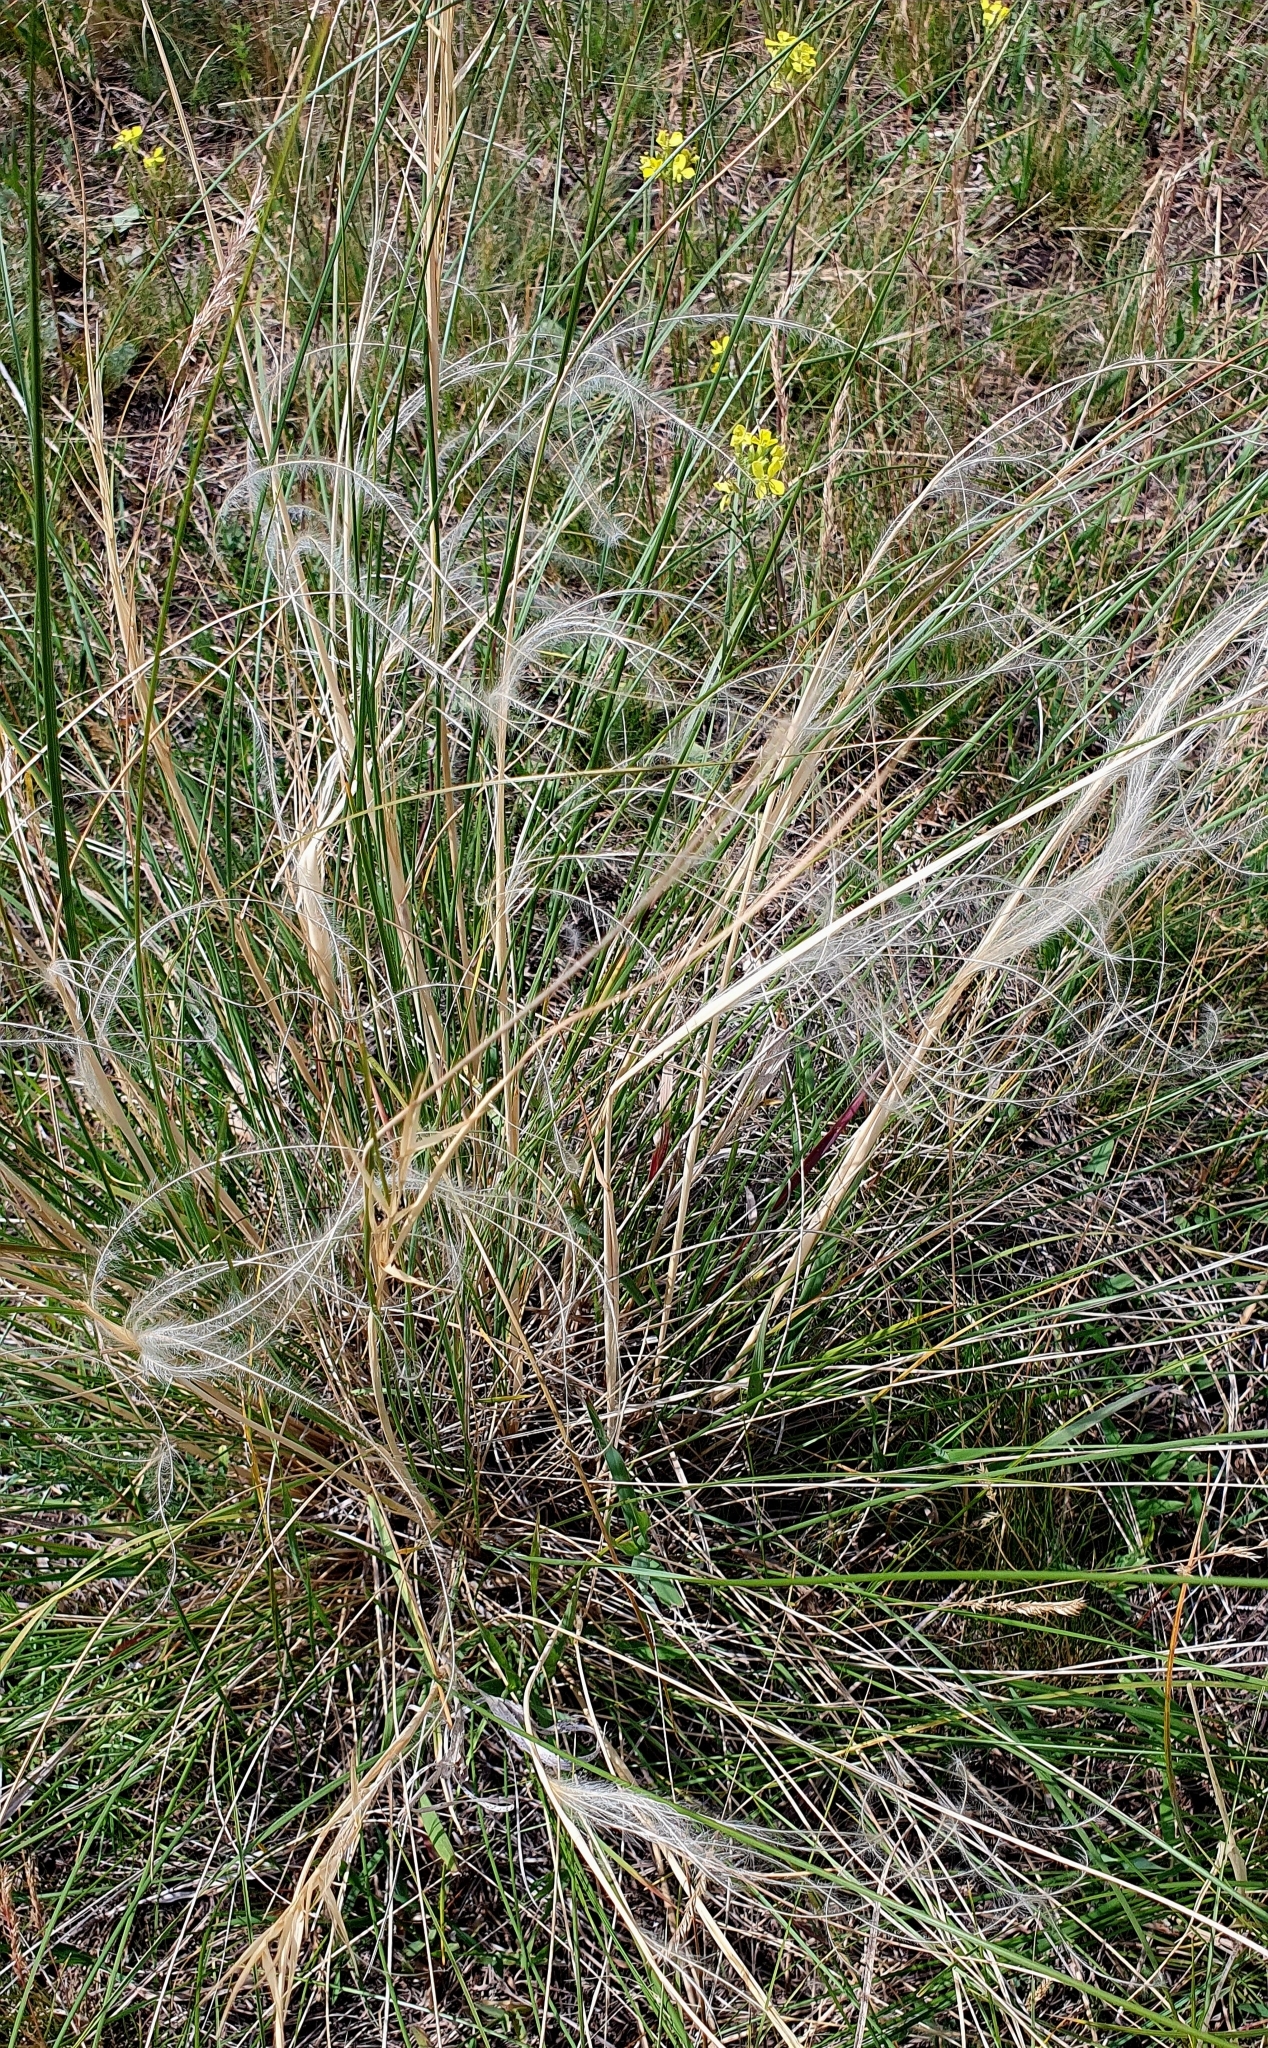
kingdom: Plantae
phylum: Tracheophyta
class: Liliopsida
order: Poales
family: Poaceae
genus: Stipa
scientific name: Stipa pennata
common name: European feather grass
